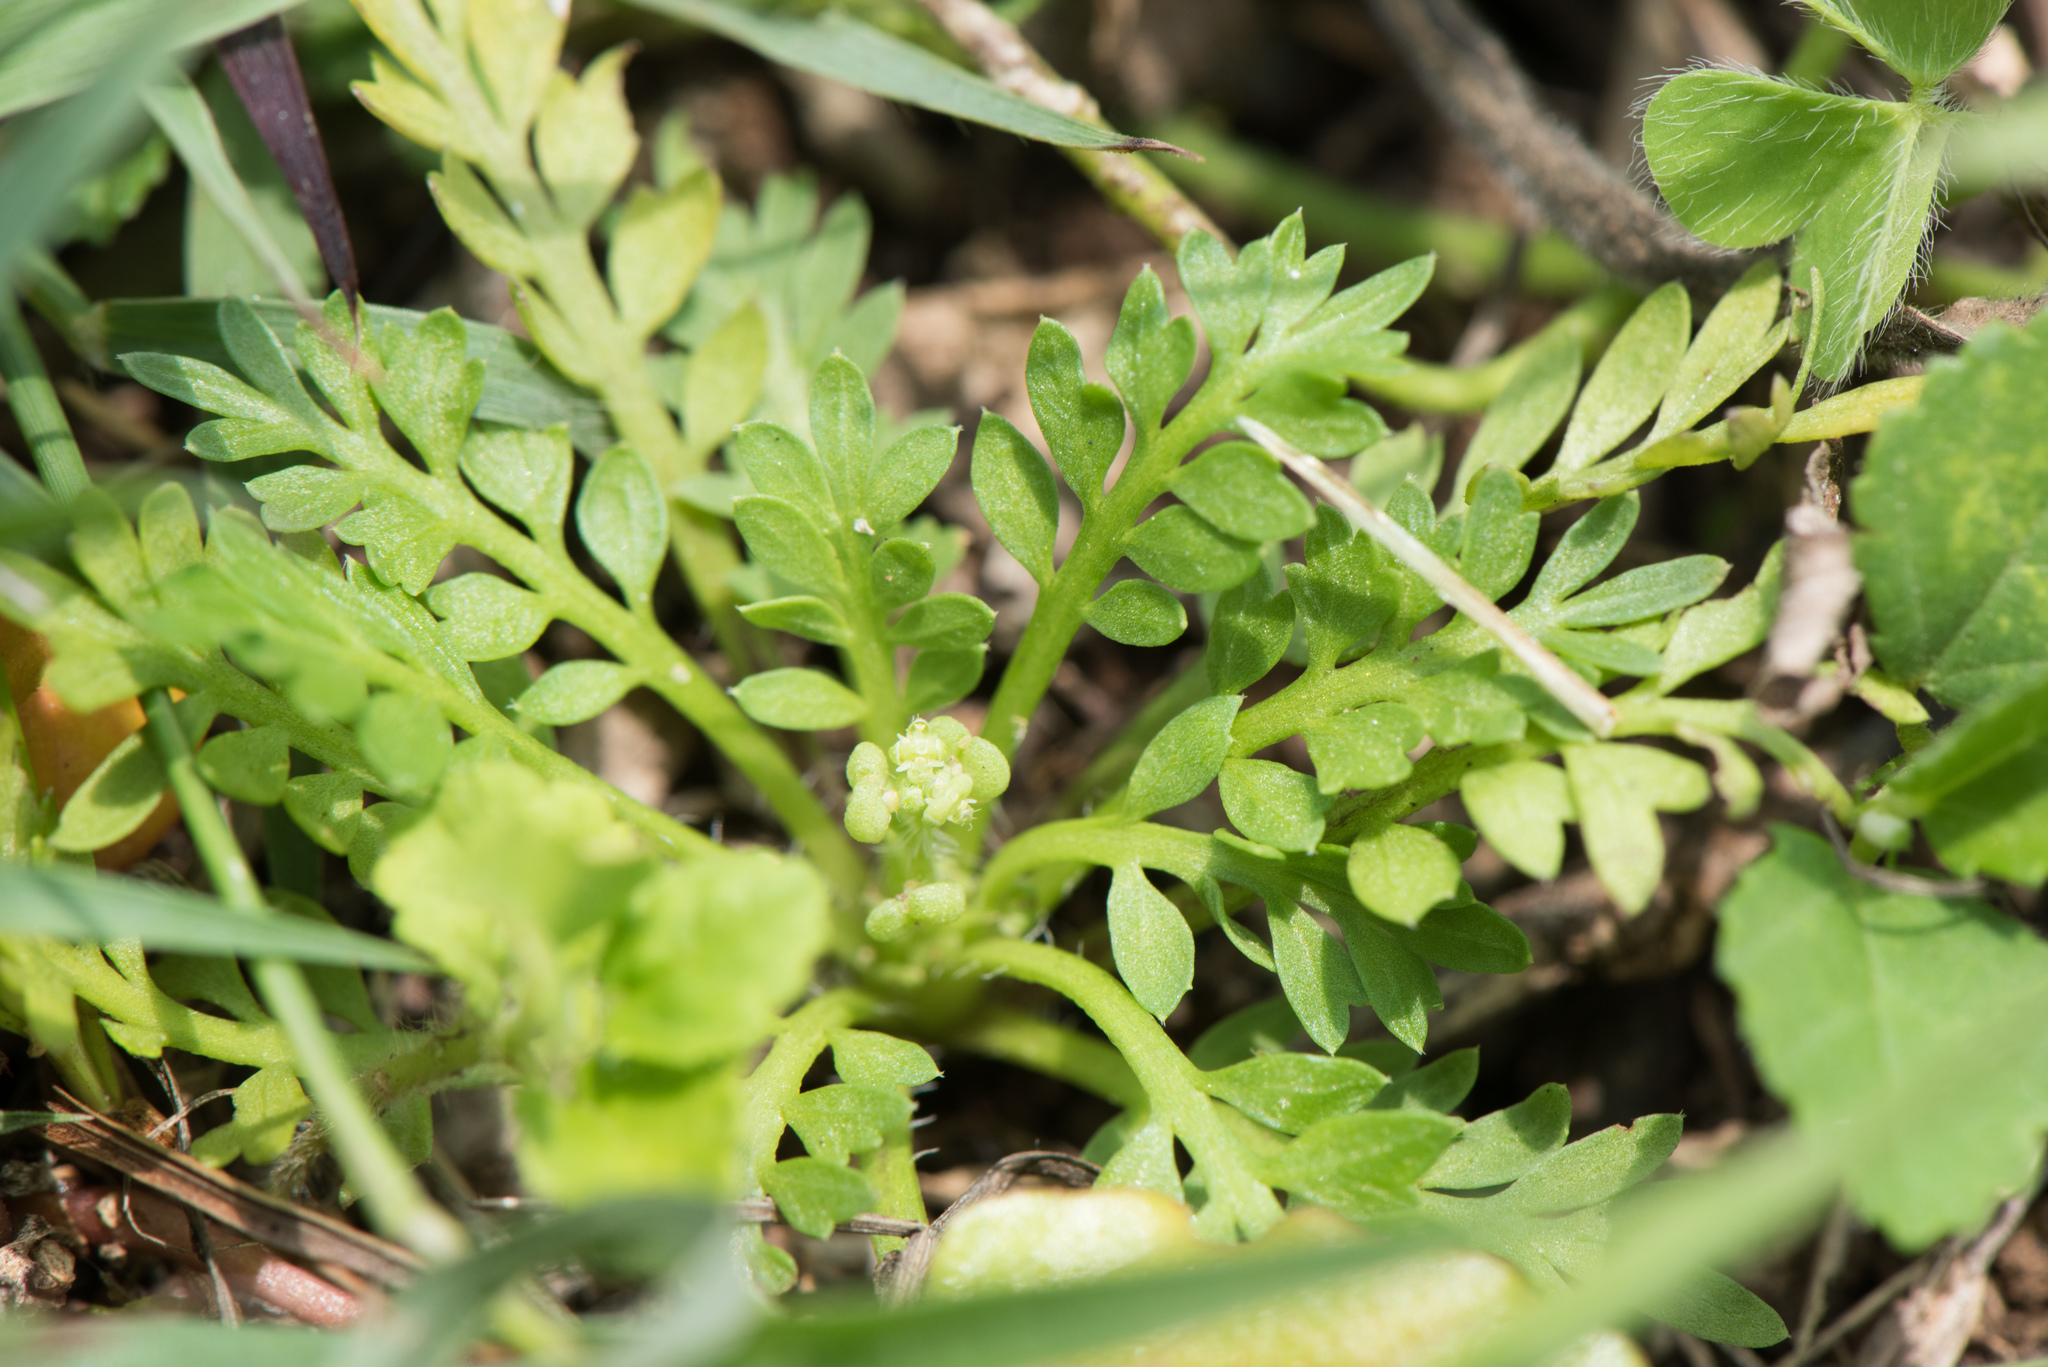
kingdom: Plantae
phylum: Tracheophyta
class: Magnoliopsida
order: Brassicales
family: Brassicaceae
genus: Lepidium
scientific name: Lepidium didymum
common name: Lesser swinecress
